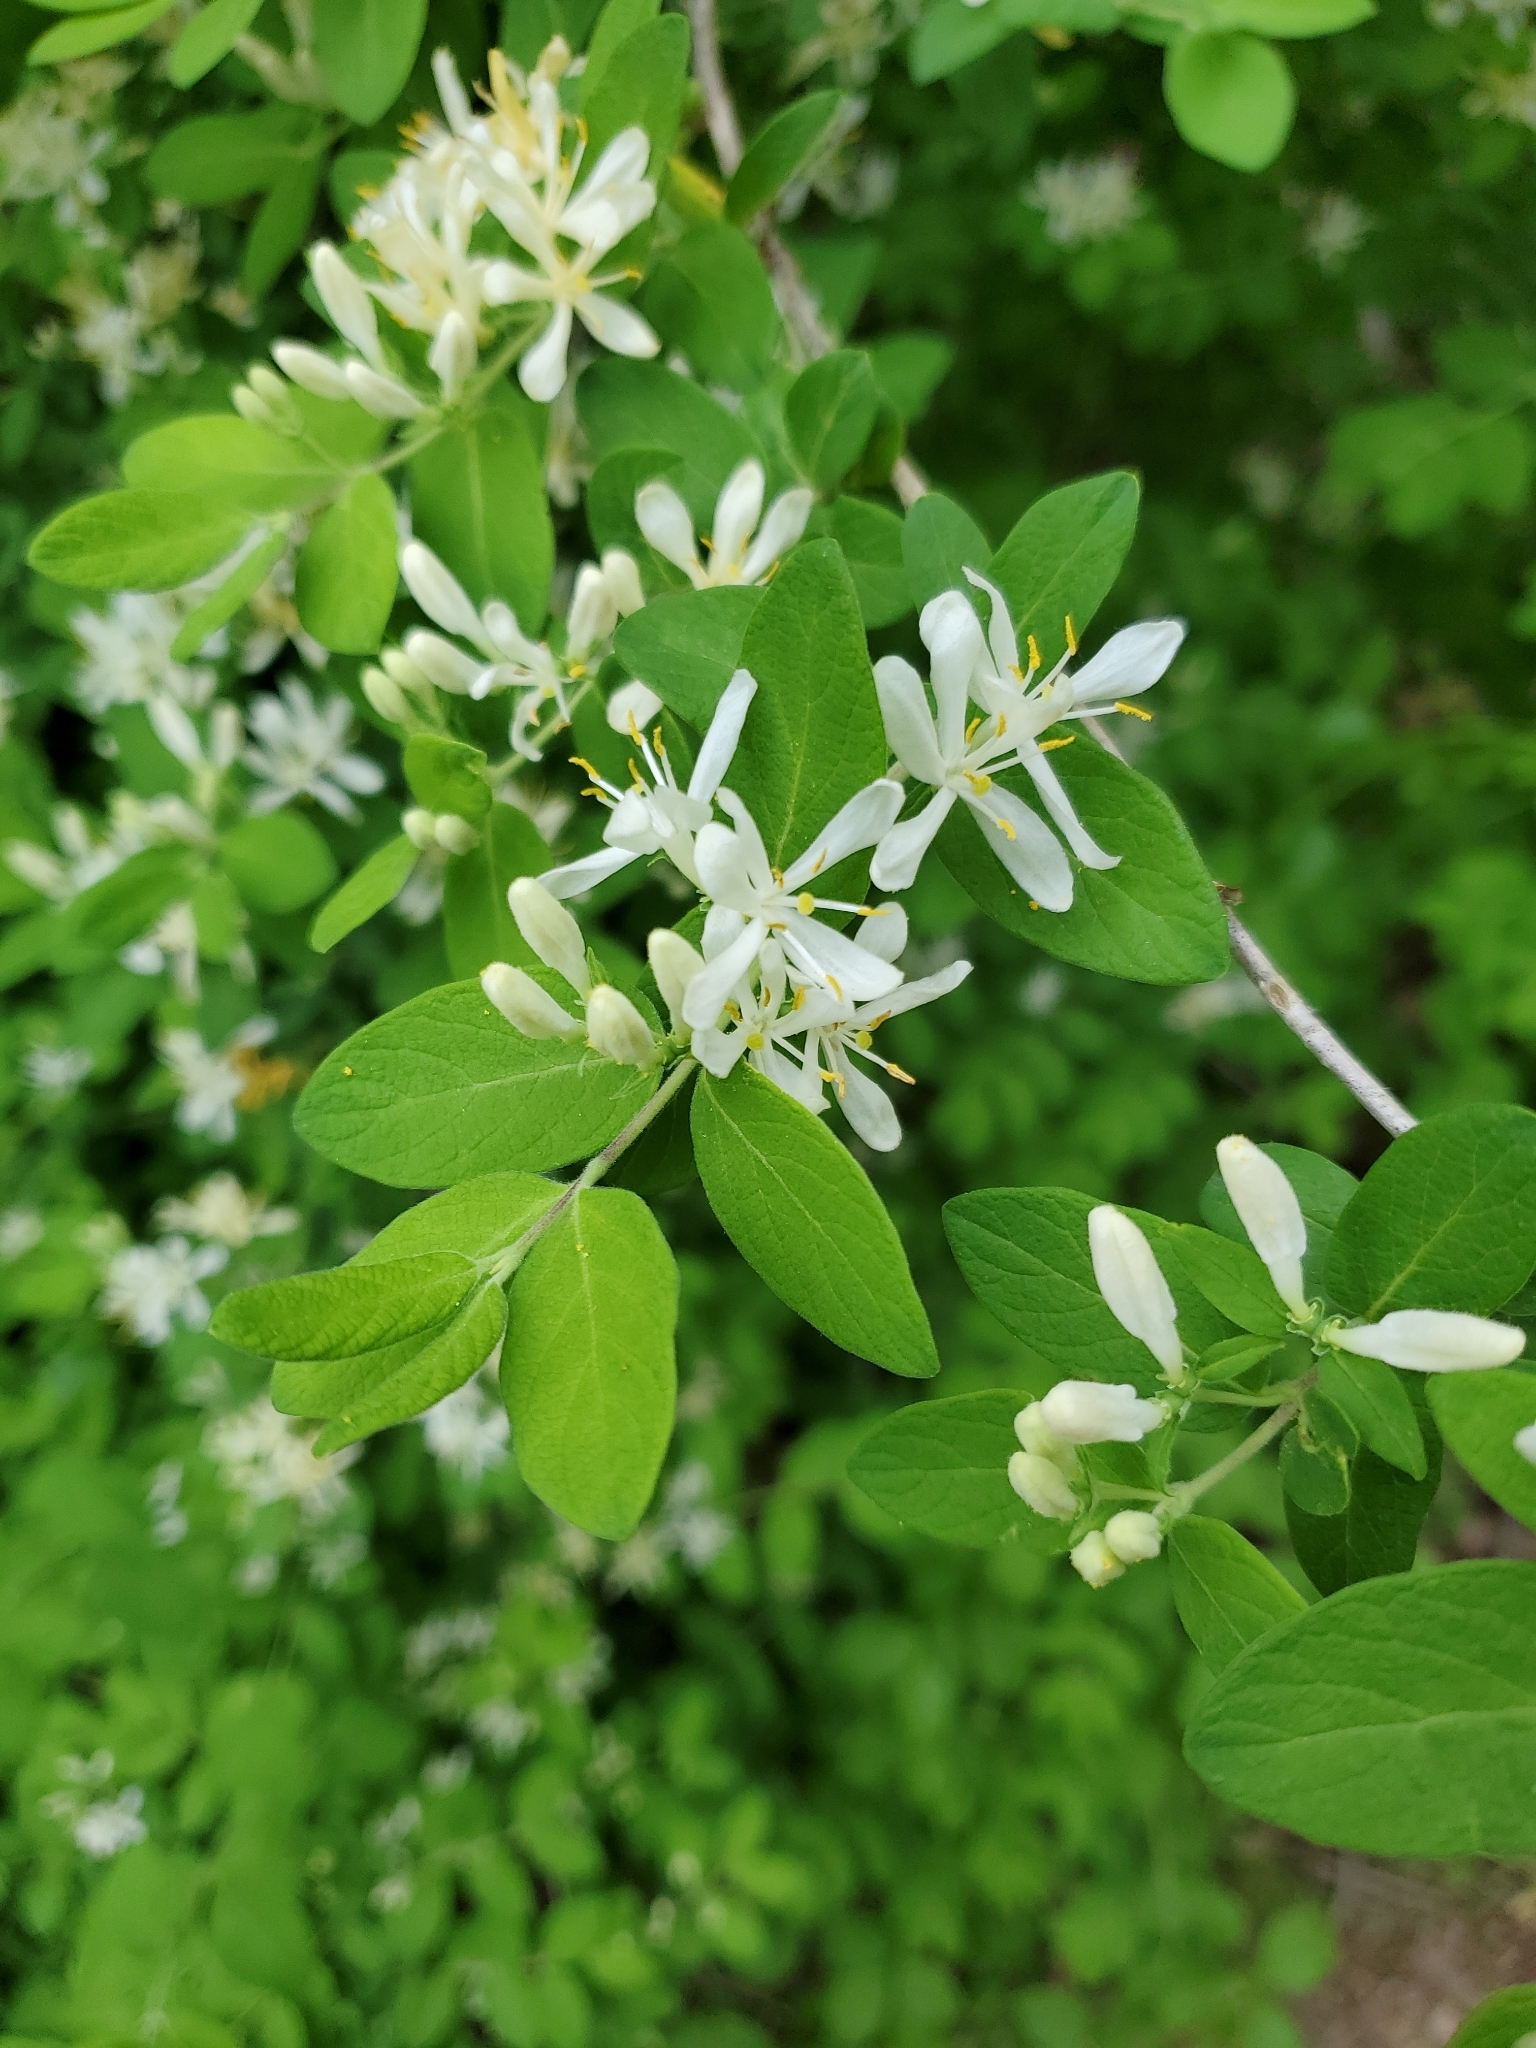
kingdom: Plantae
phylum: Tracheophyta
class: Magnoliopsida
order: Dipsacales
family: Caprifoliaceae
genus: Lonicera
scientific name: Lonicera morrowii
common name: Morrow's honeysuckle
